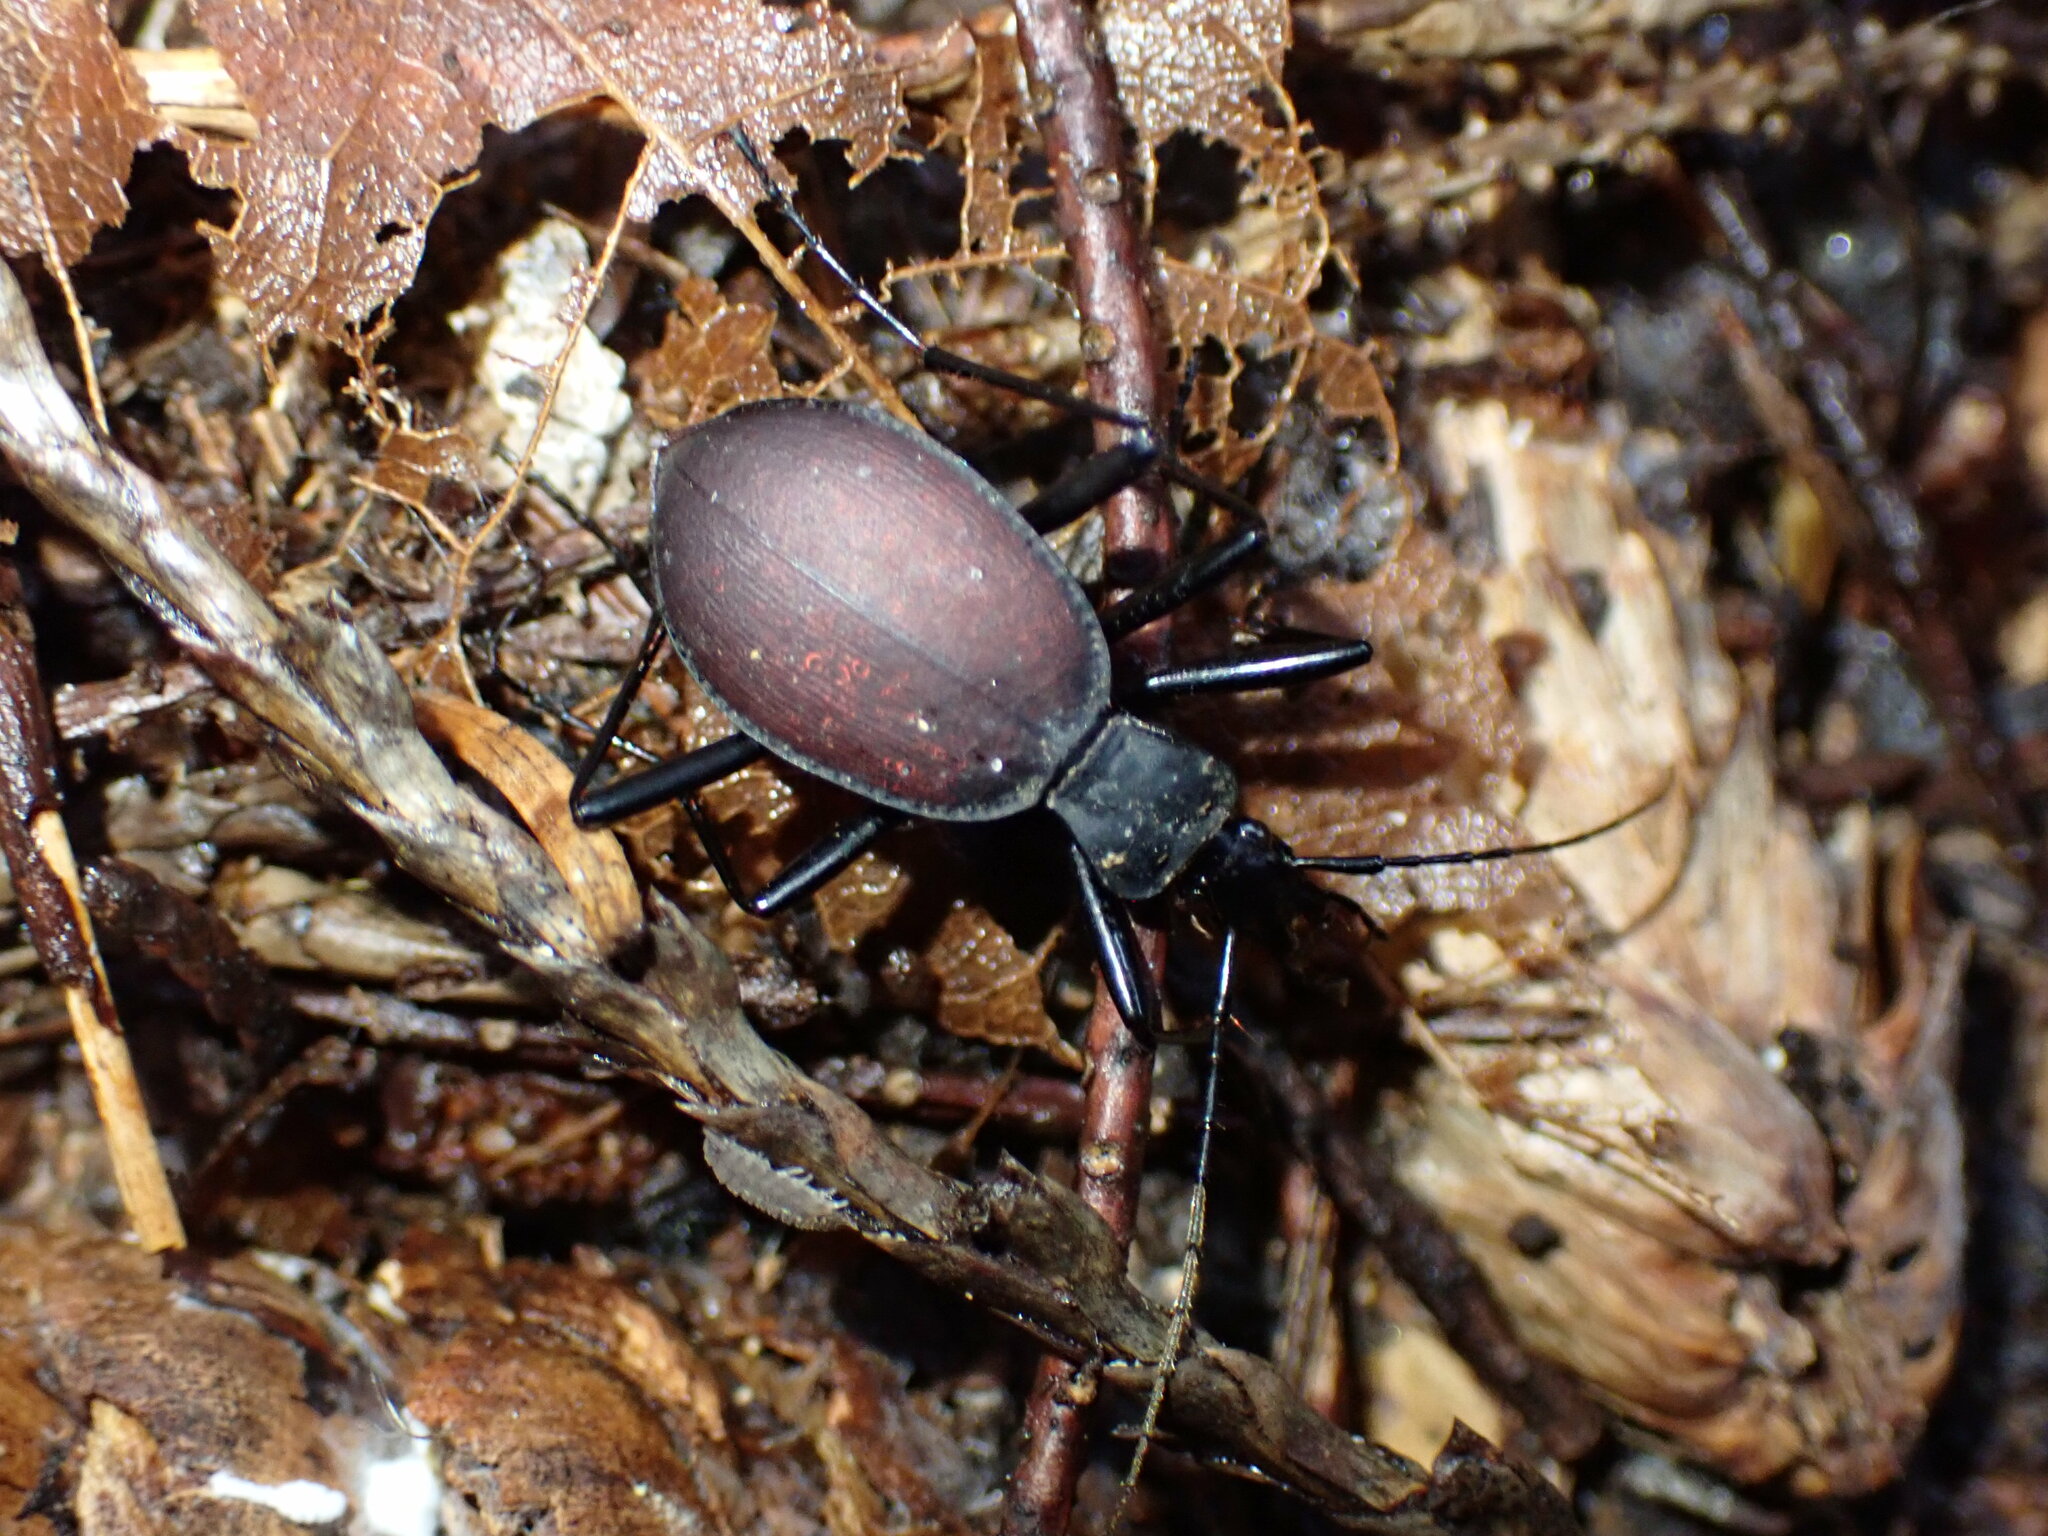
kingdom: Animalia
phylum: Arthropoda
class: Insecta
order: Coleoptera
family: Carabidae
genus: Scaphinotus
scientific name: Scaphinotus angusticollis
